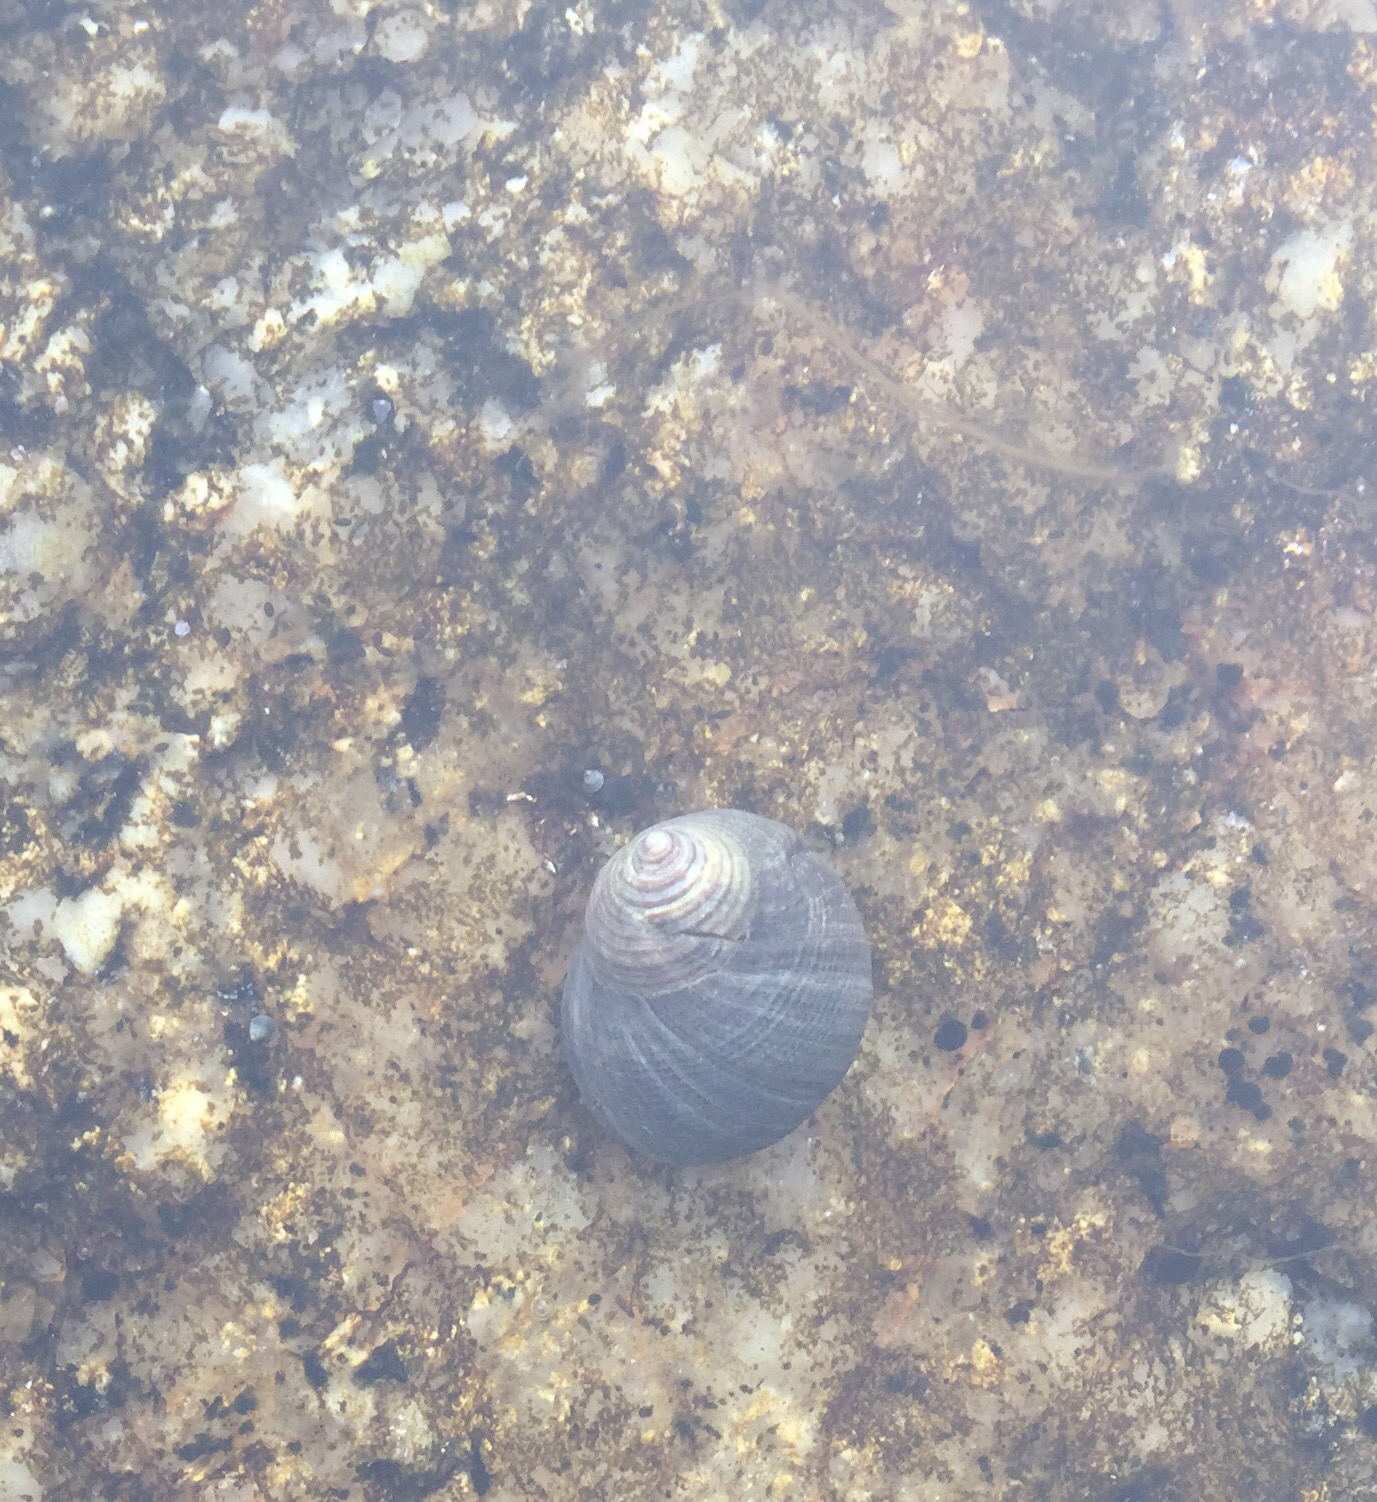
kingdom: Animalia
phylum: Mollusca
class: Gastropoda
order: Littorinimorpha
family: Littorinidae
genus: Littorina
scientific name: Littorina littorea
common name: Common periwinkle
